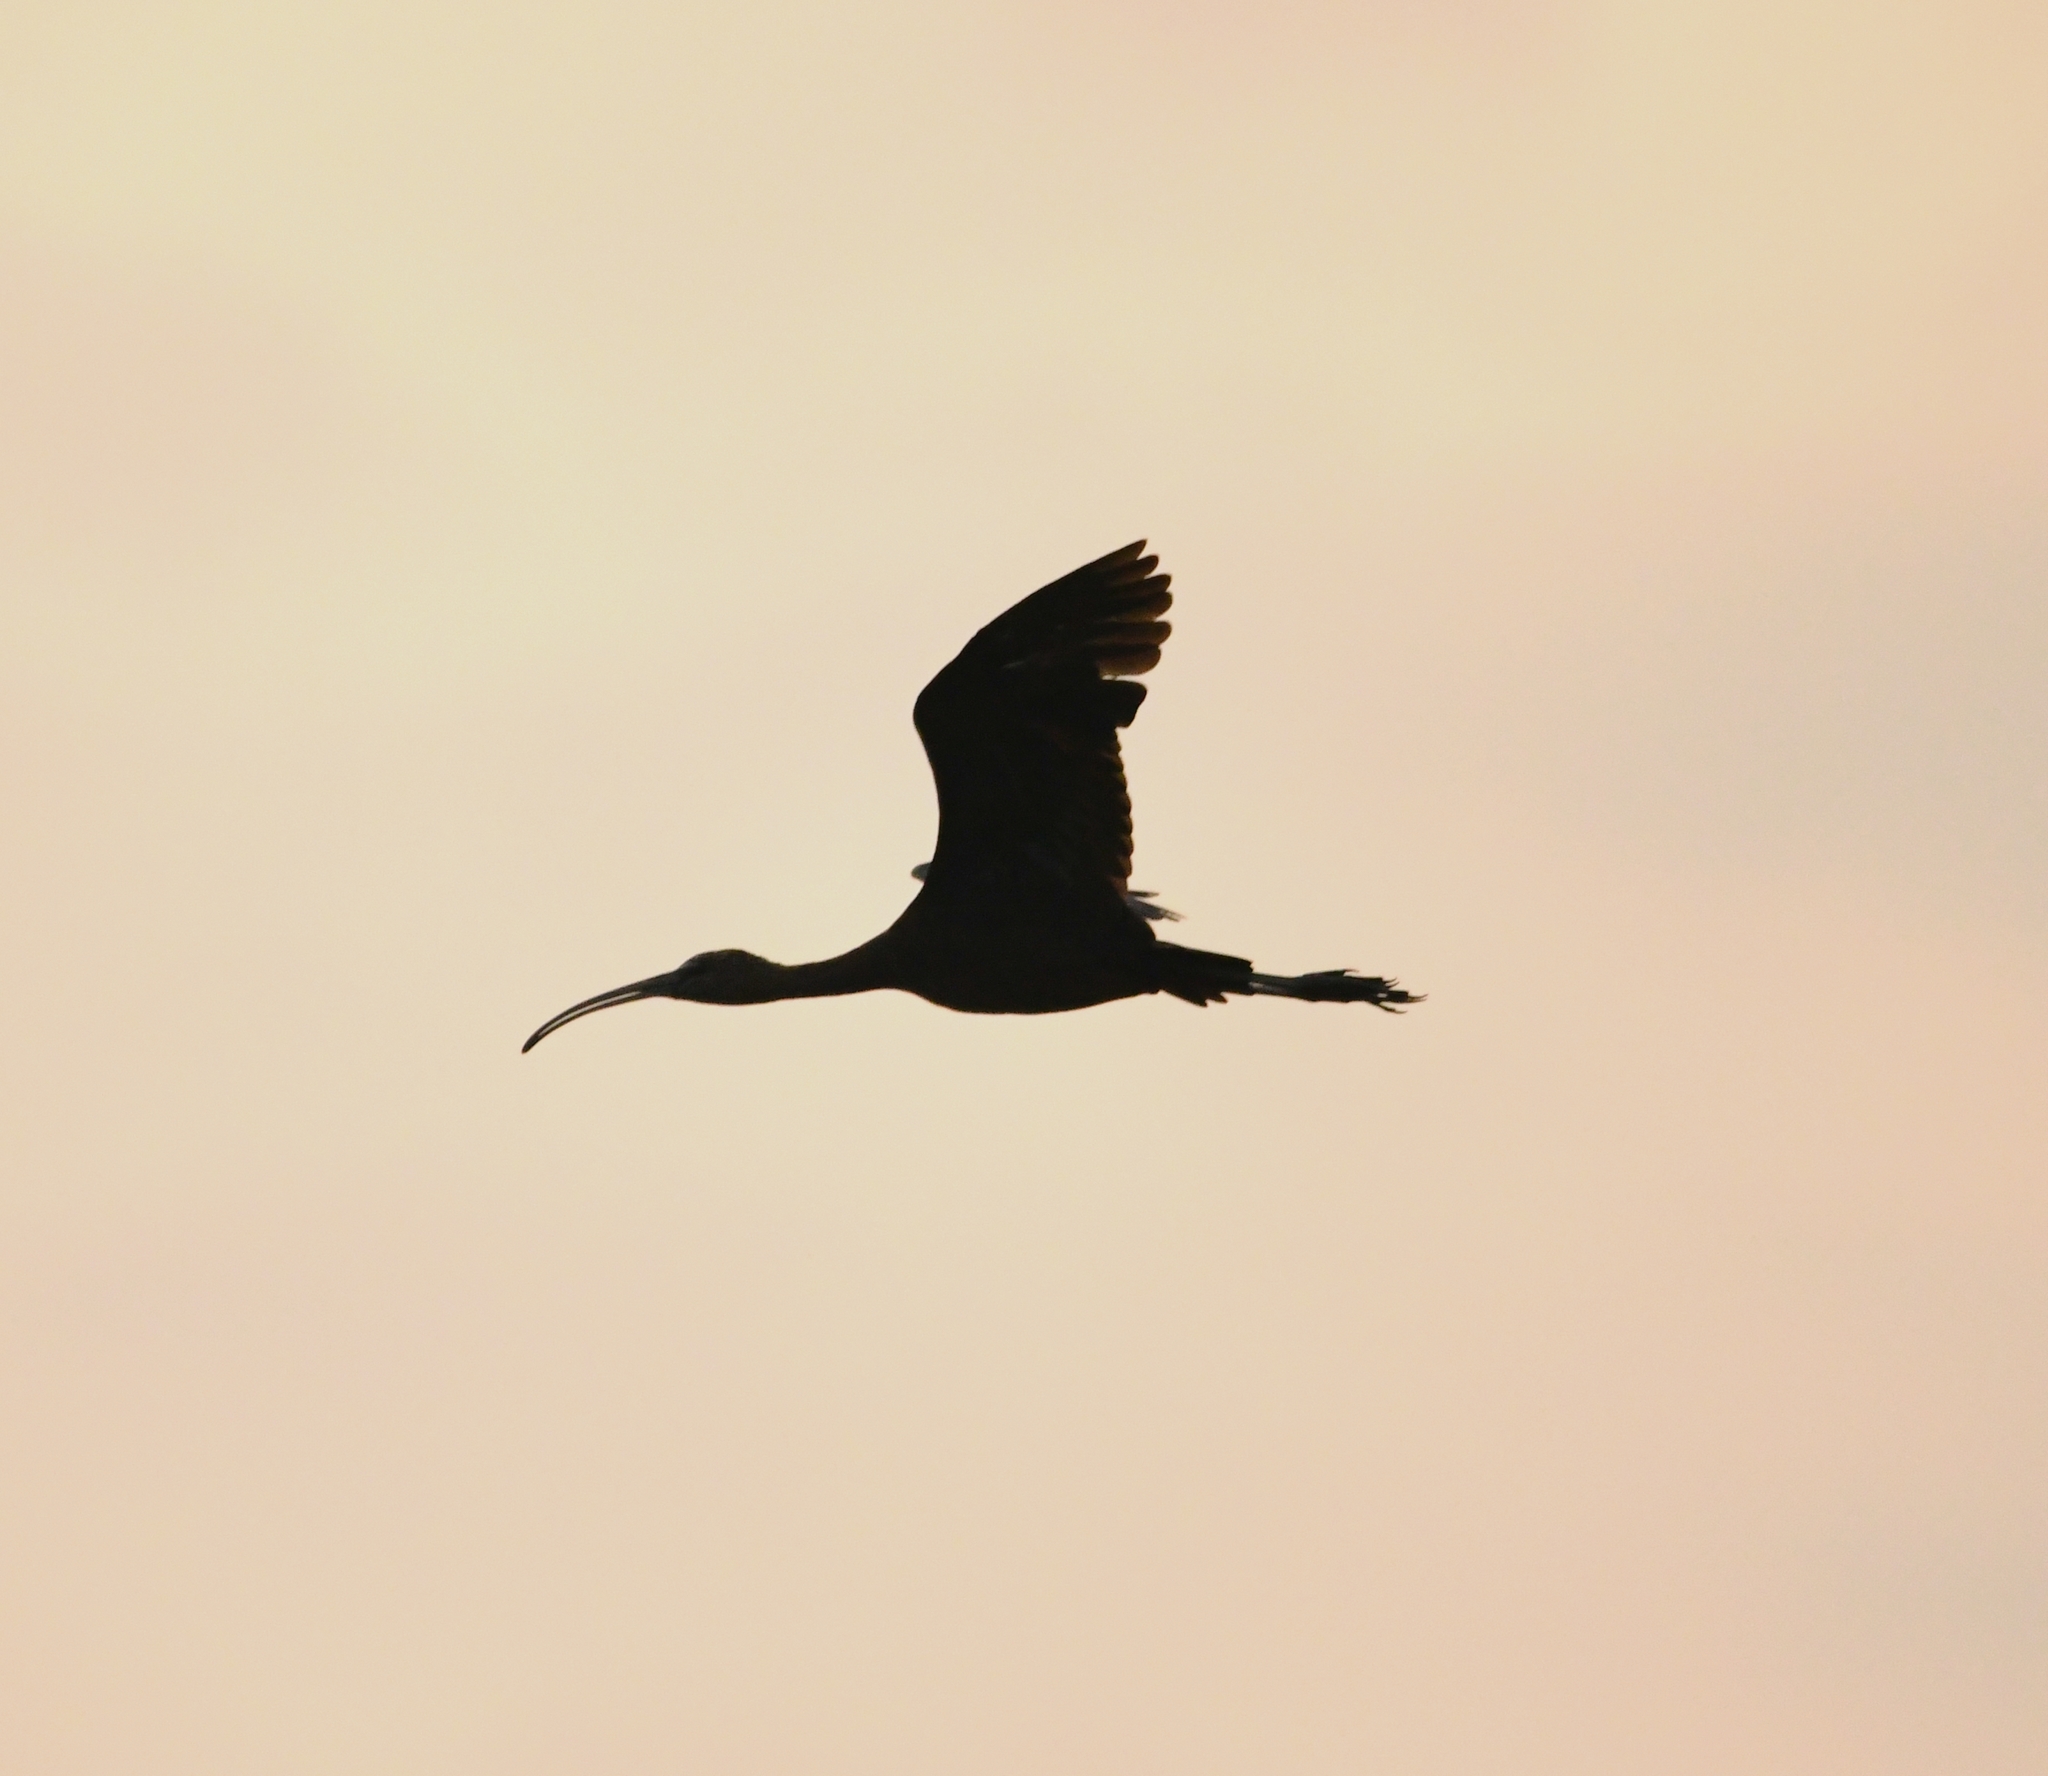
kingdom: Animalia
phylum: Chordata
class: Aves
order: Pelecaniformes
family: Threskiornithidae
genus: Plegadis
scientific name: Plegadis falcinellus
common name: Glossy ibis
